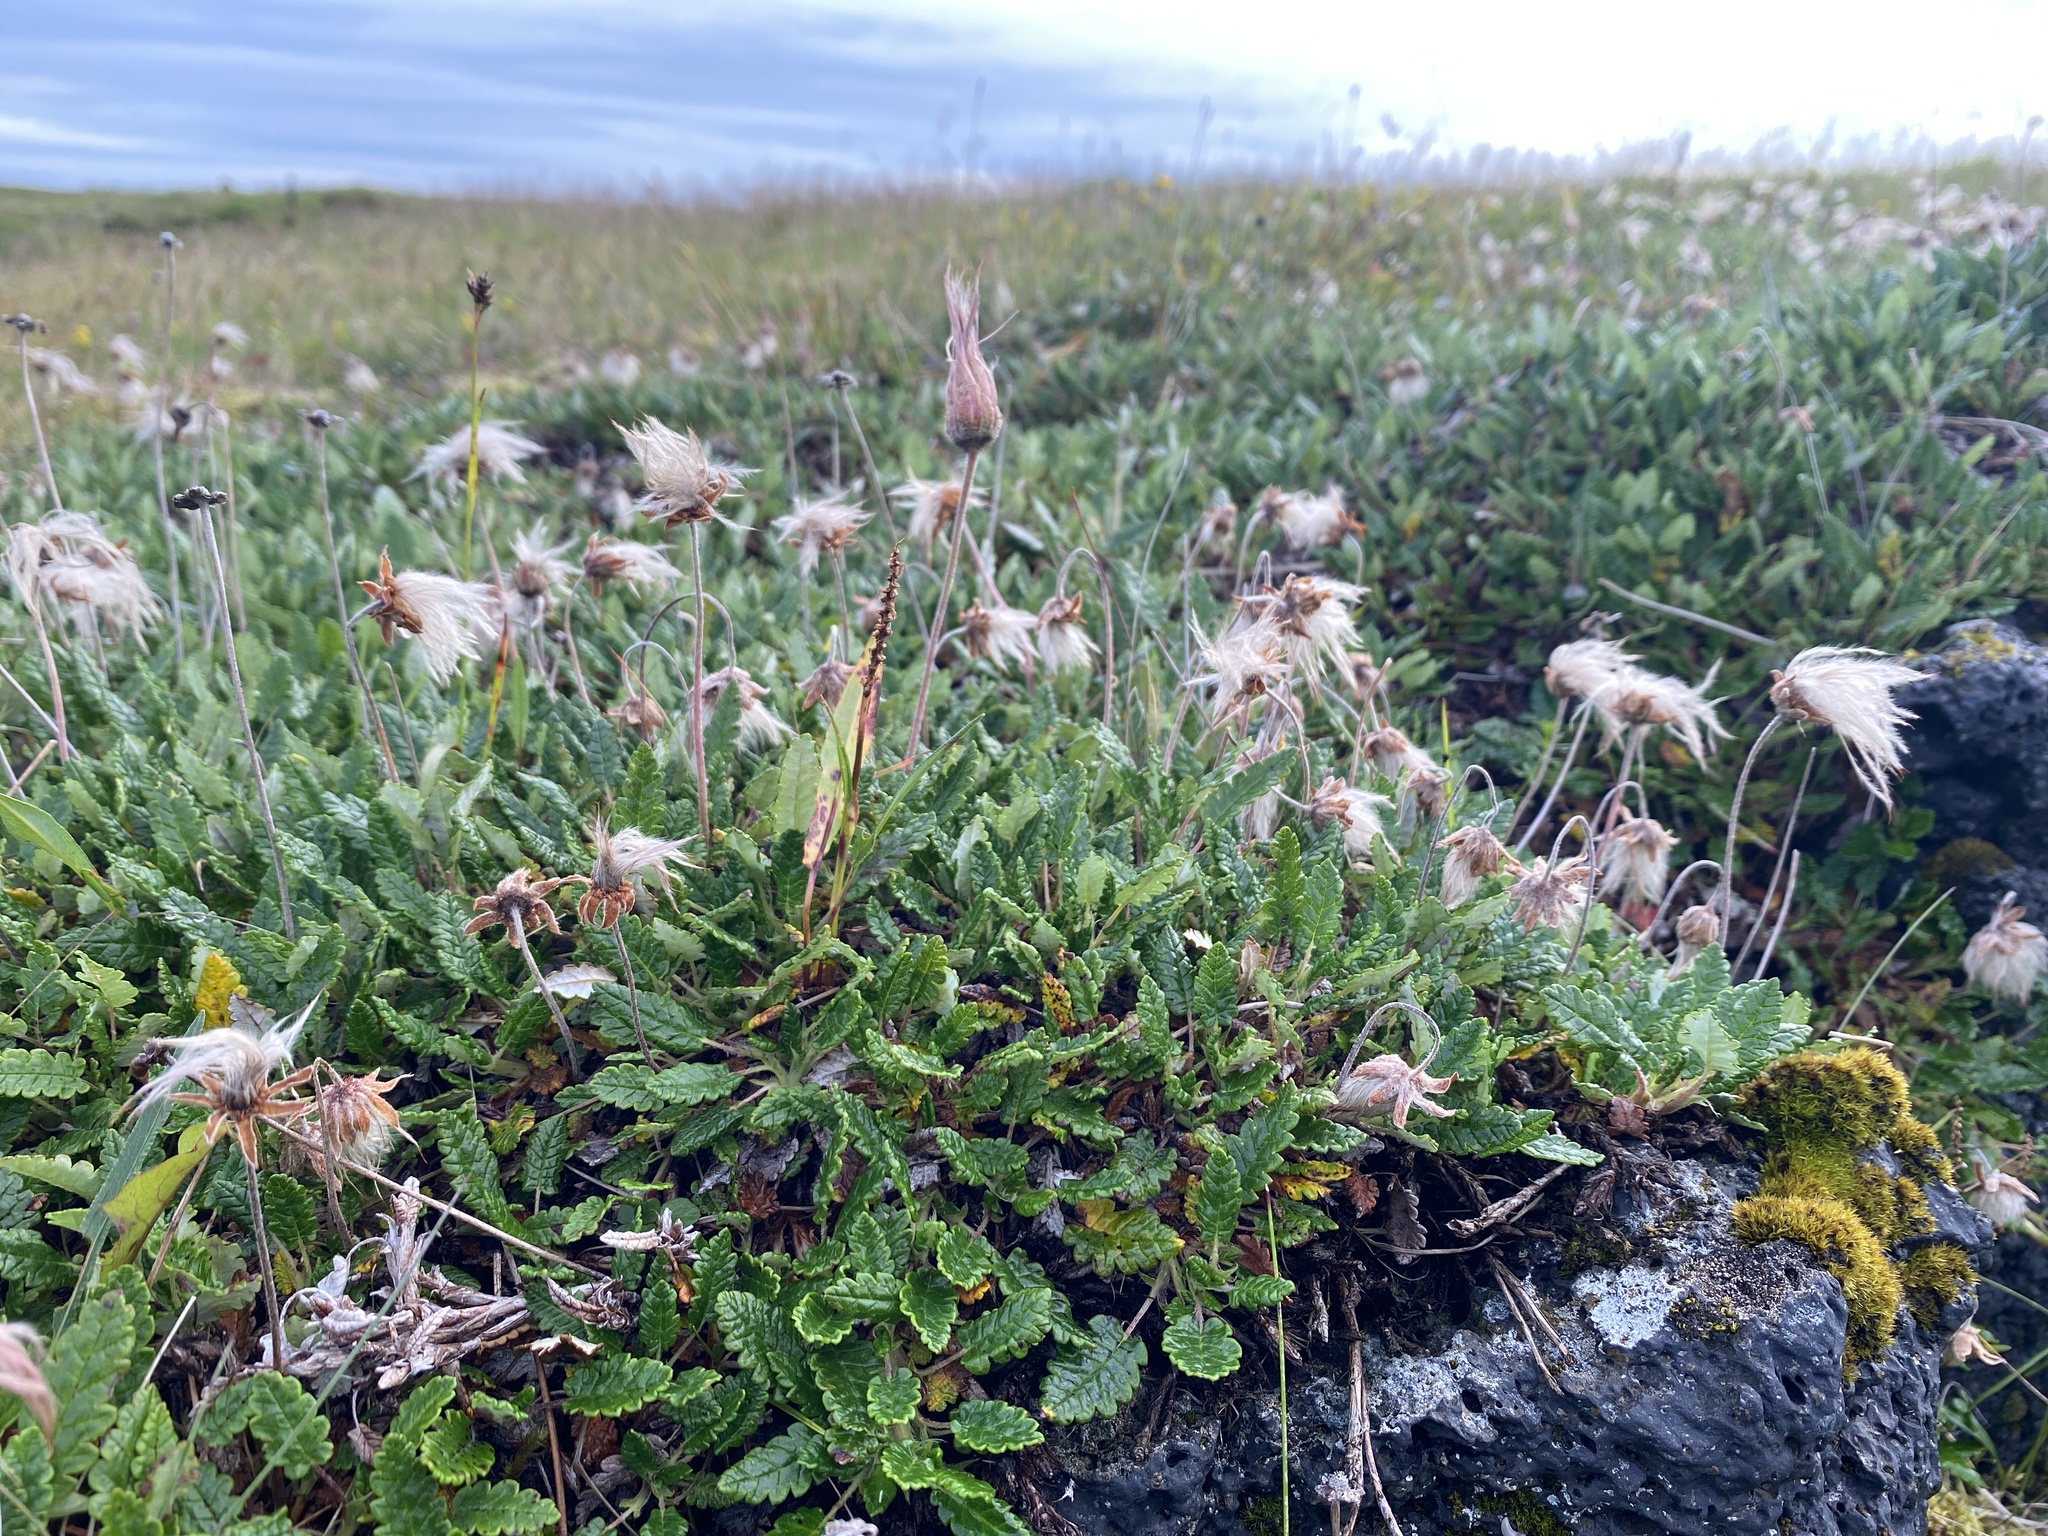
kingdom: Plantae
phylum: Tracheophyta
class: Magnoliopsida
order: Rosales
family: Rosaceae
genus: Dryas
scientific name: Dryas octopetala
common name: Eight-petal mountain-avens
